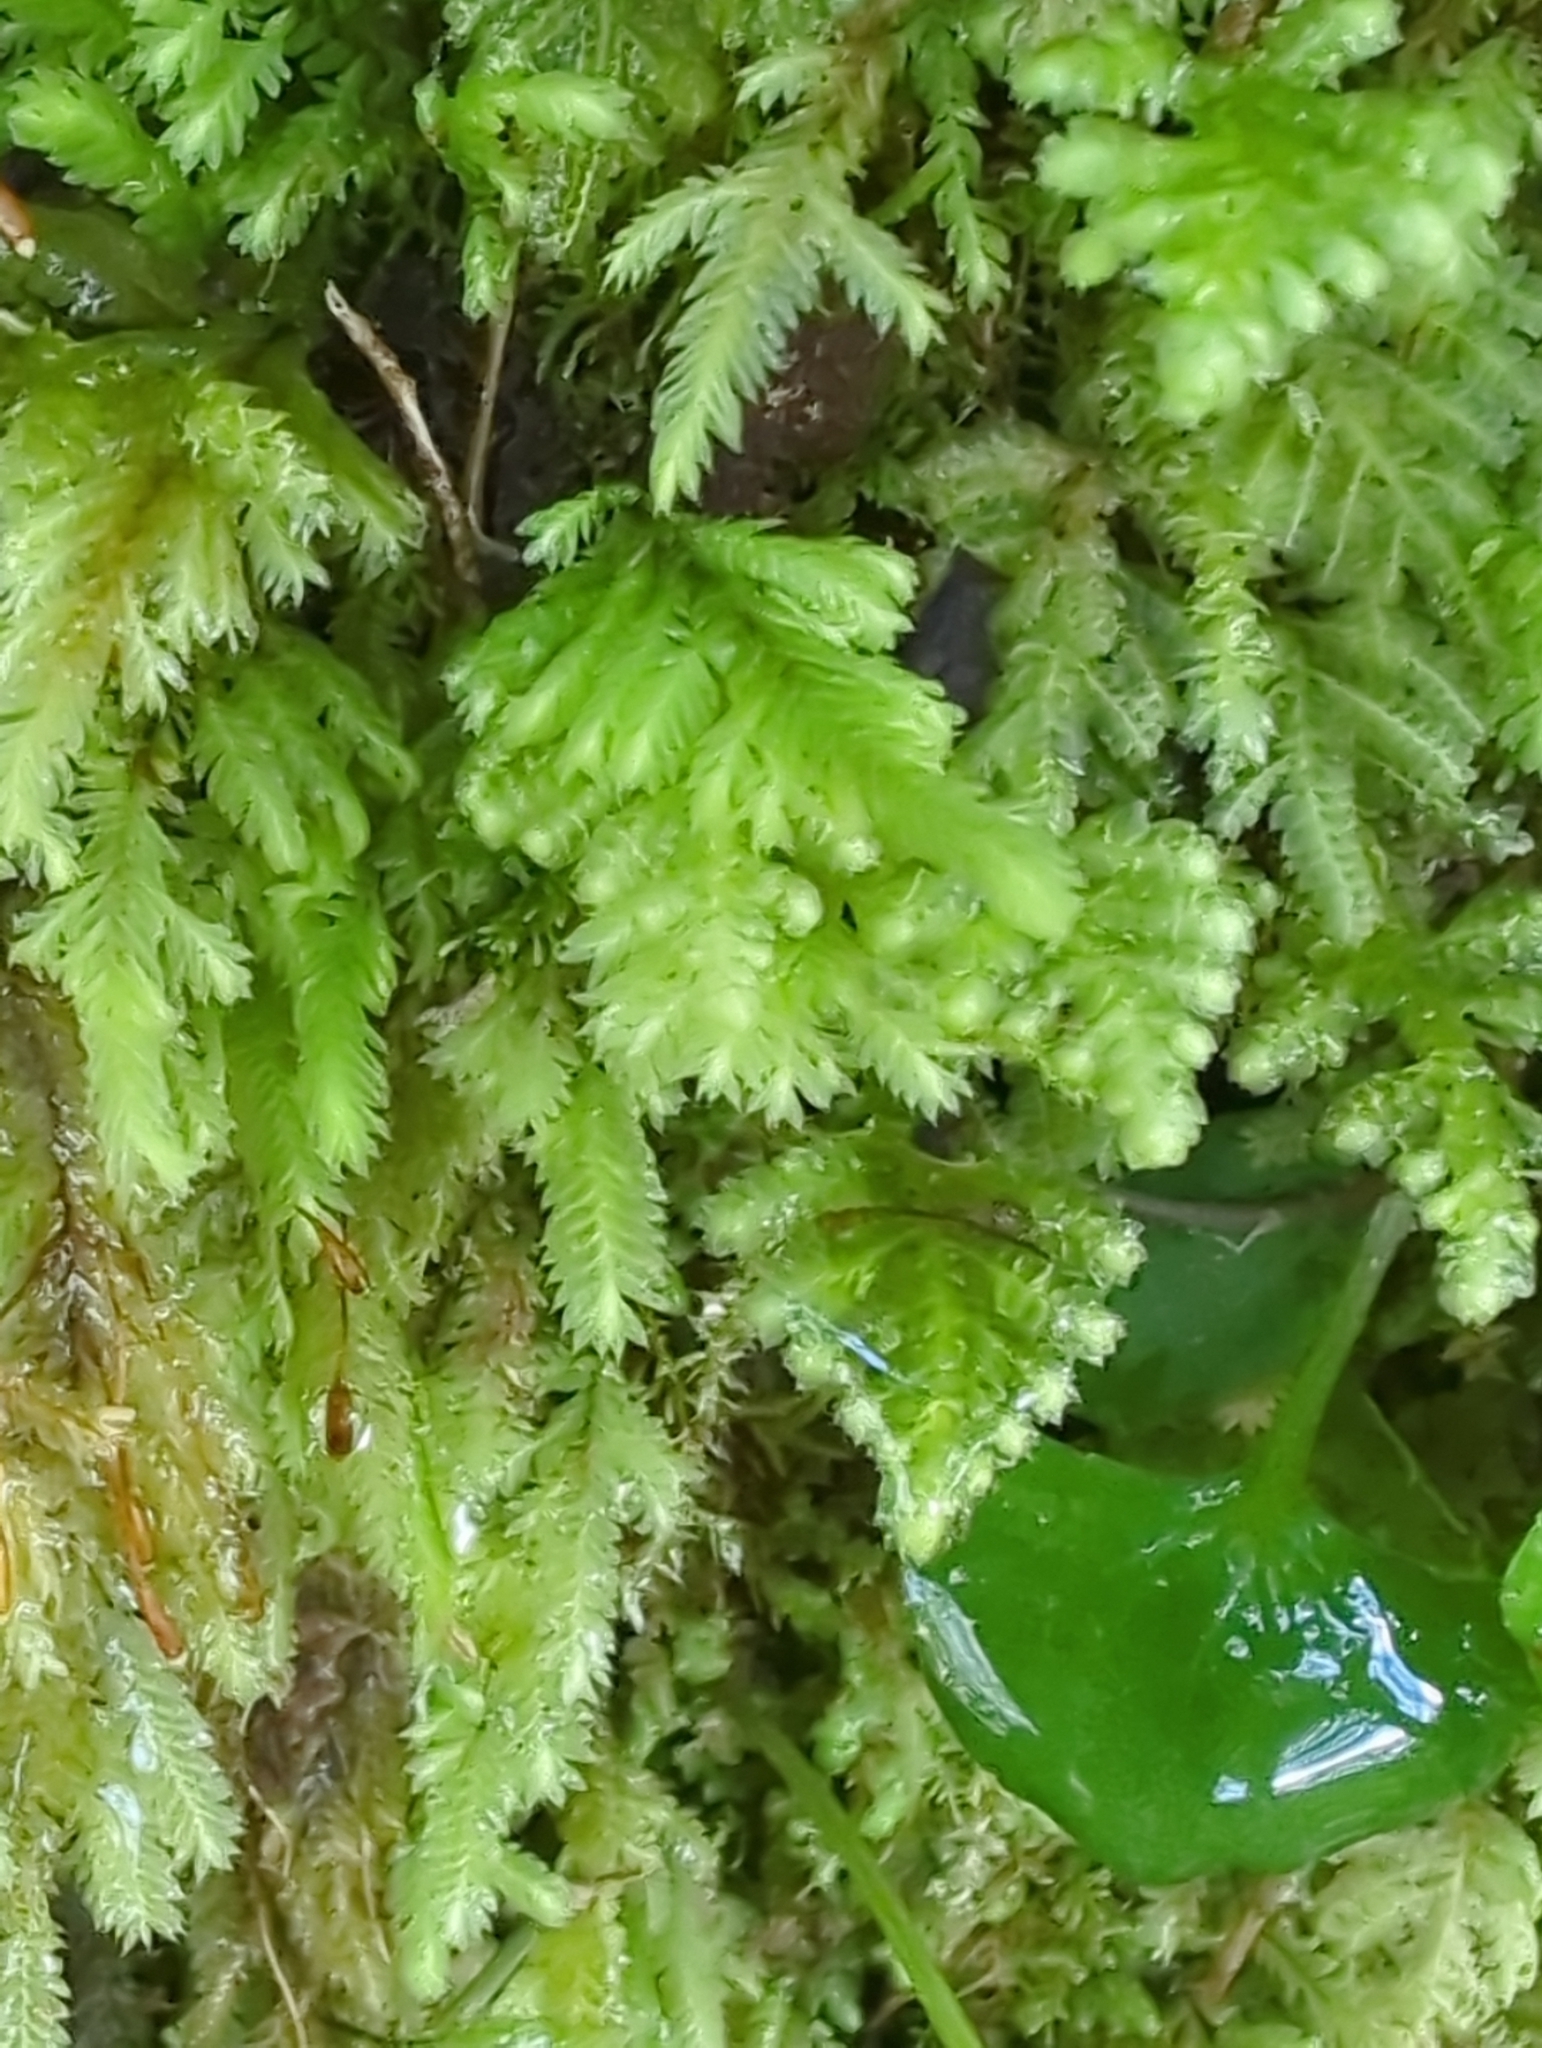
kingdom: Plantae
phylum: Bryophyta
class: Bryopsida
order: Hypopterygiales
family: Hypopterygiaceae
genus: Lopidium
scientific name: Lopidium concinnum
